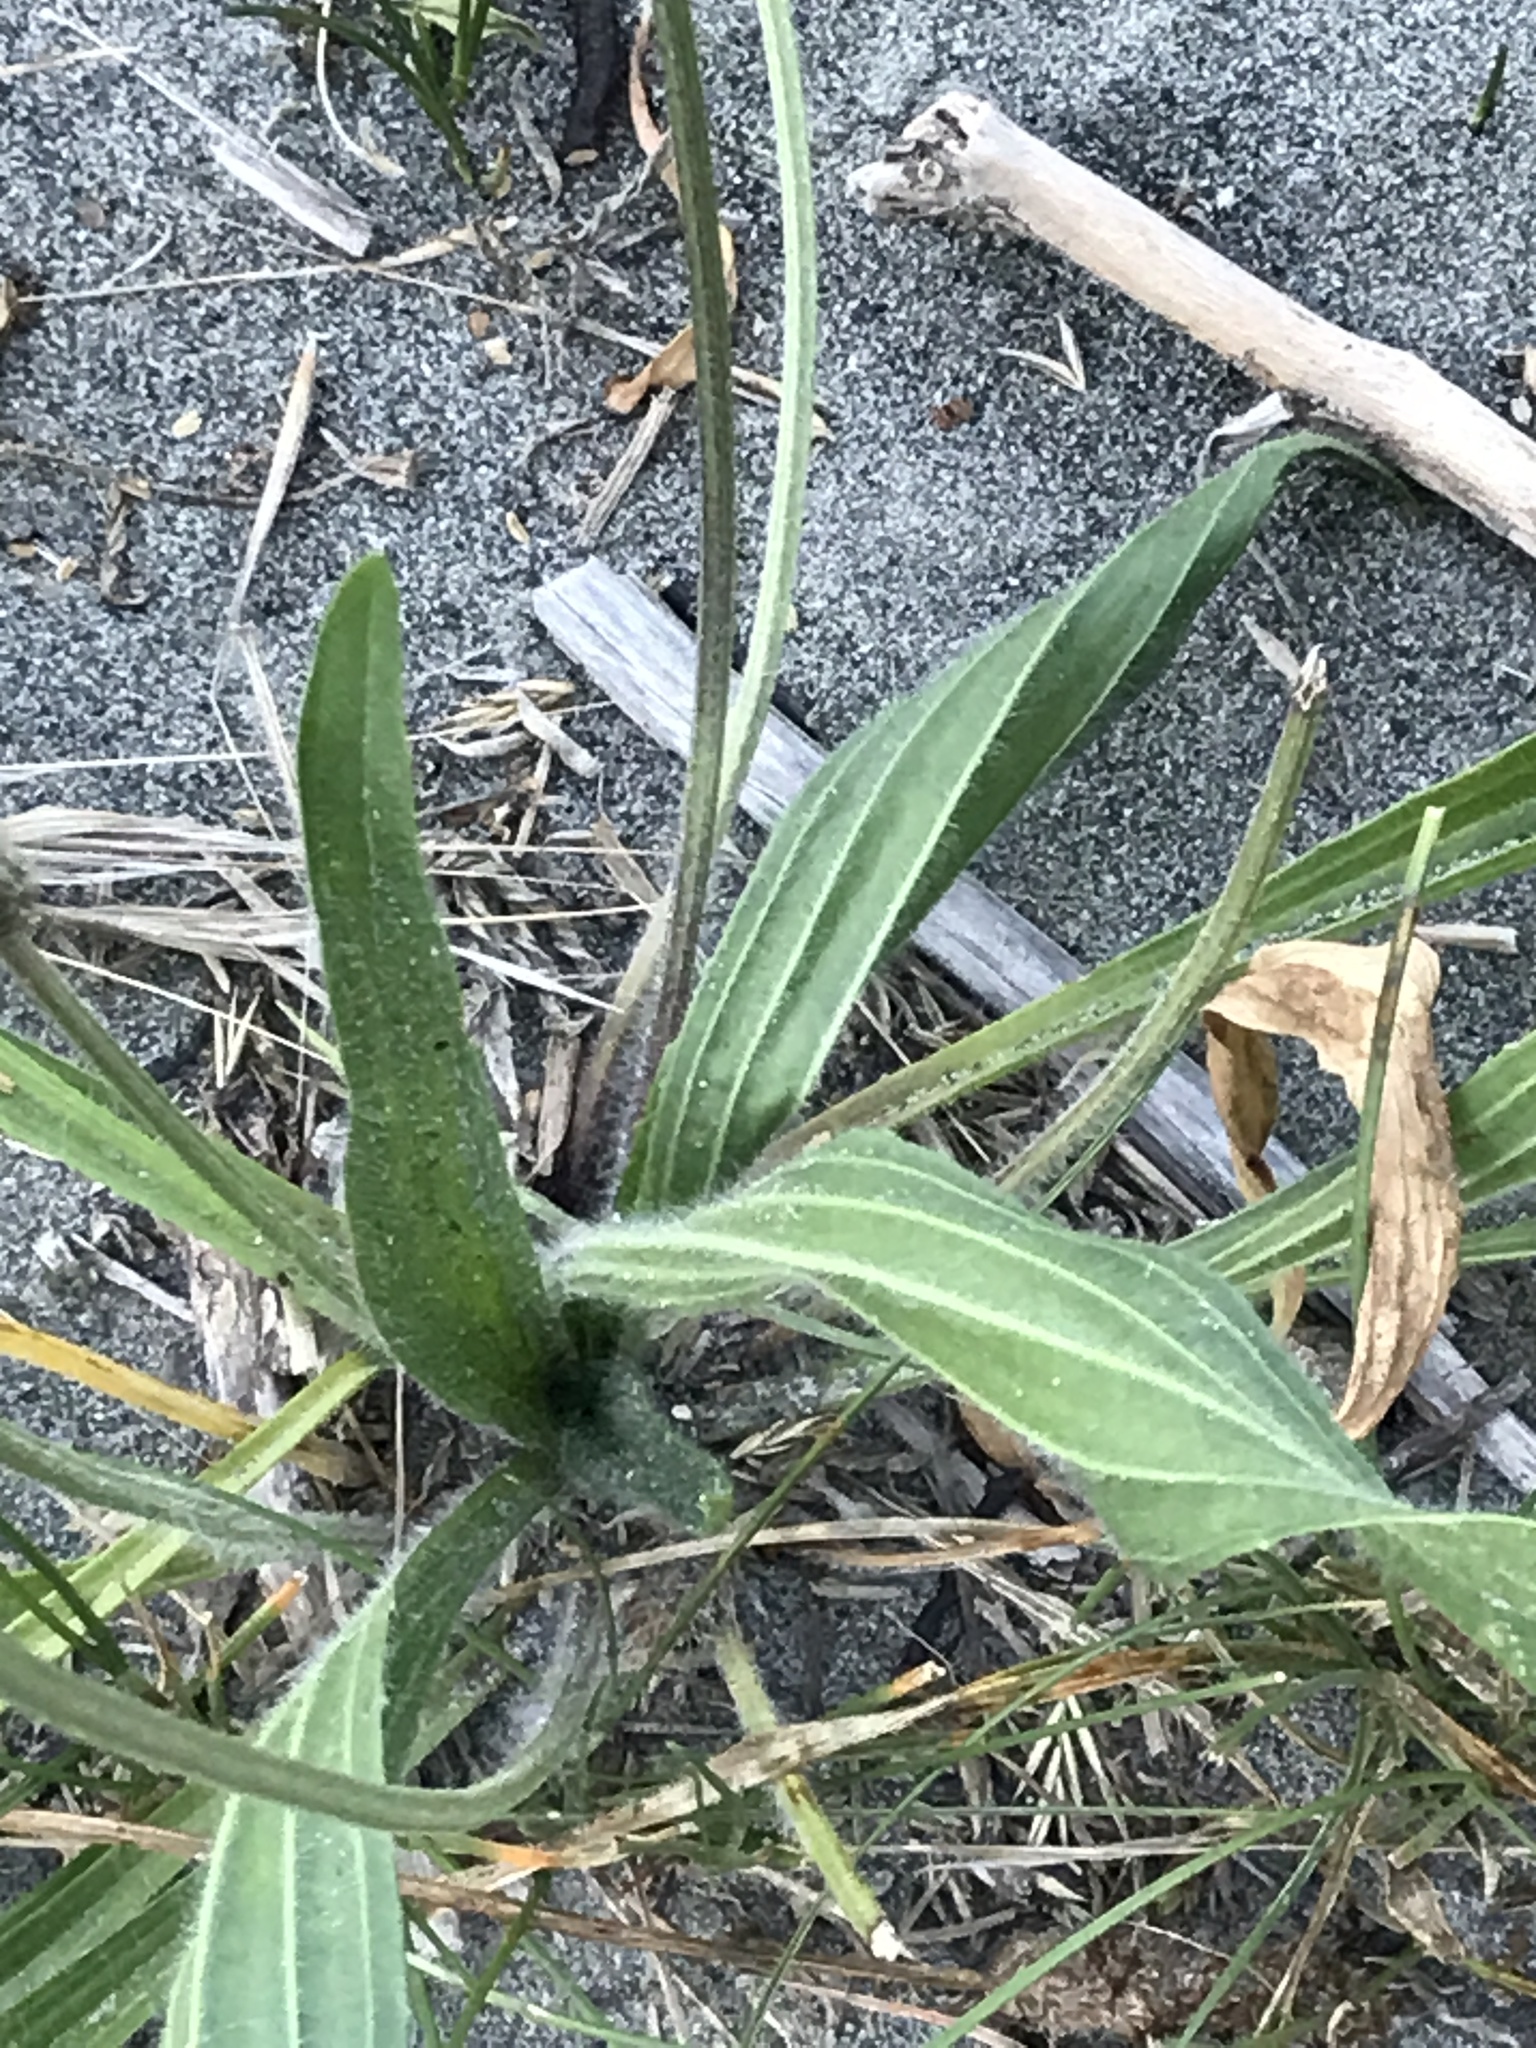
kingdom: Plantae
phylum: Tracheophyta
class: Magnoliopsida
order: Lamiales
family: Plantaginaceae
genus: Plantago
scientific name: Plantago lanceolata
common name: Ribwort plantain
